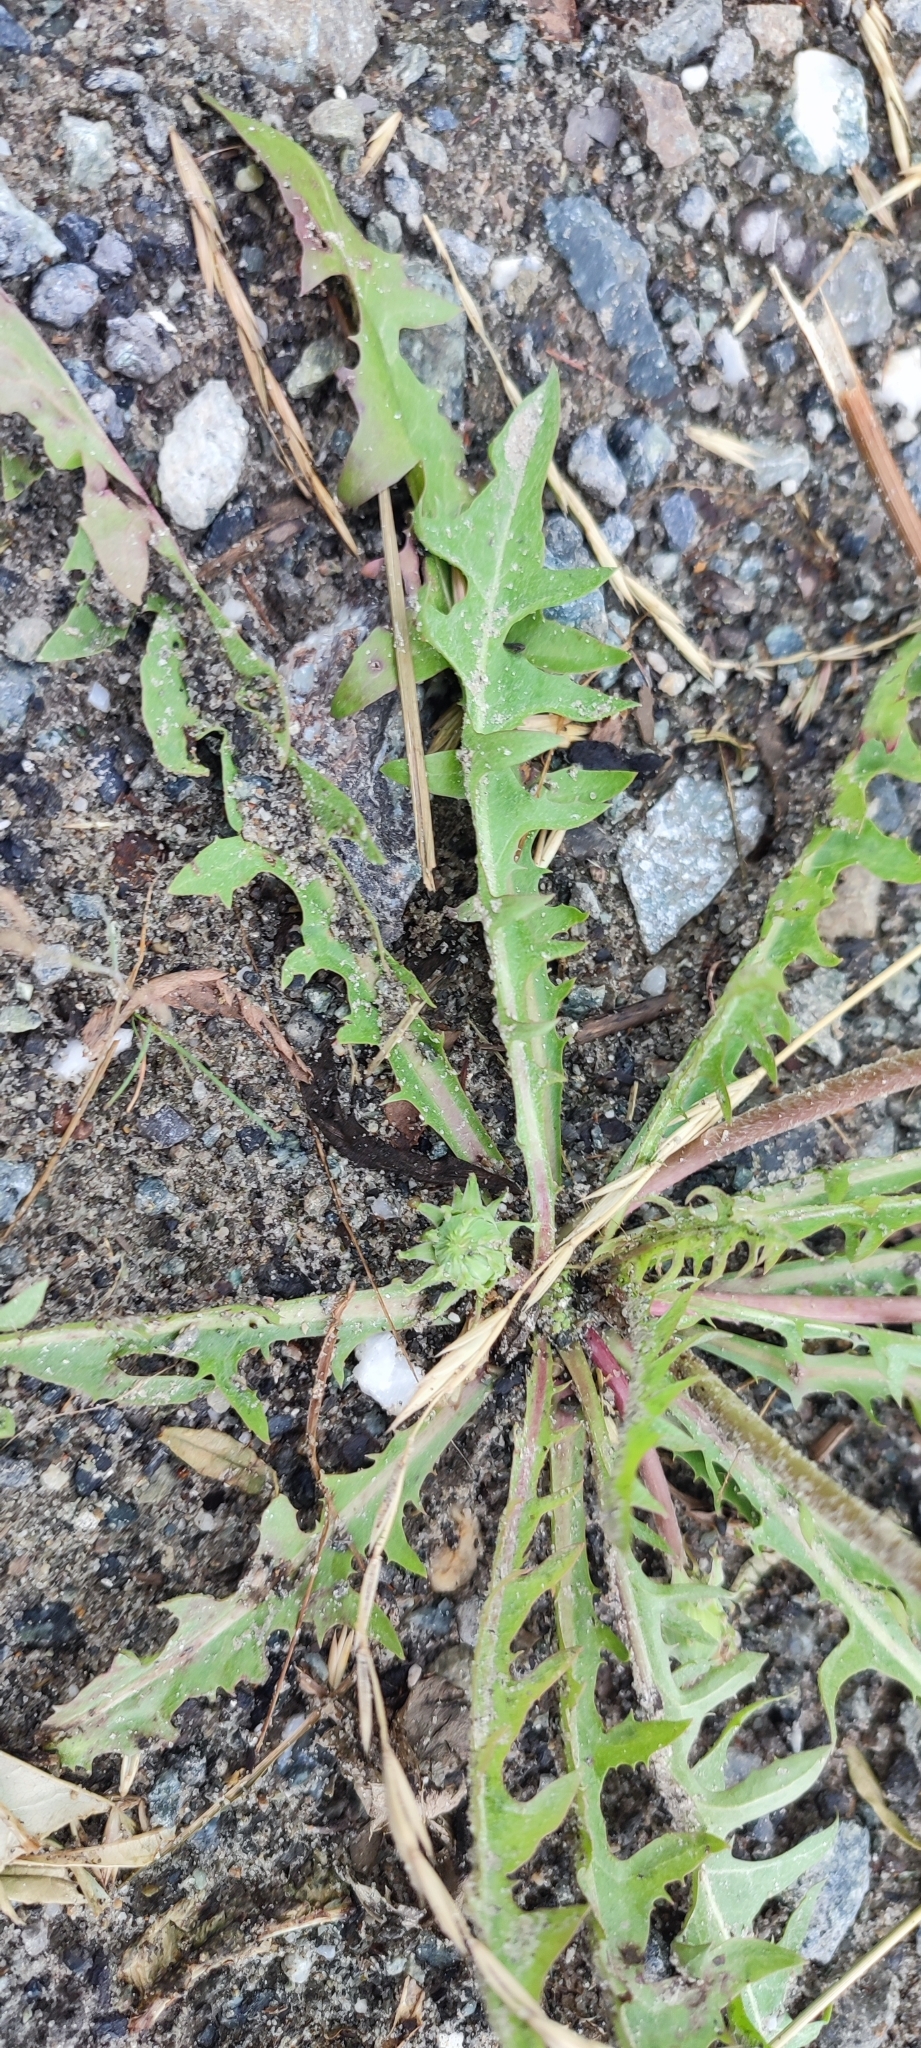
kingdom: Plantae
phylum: Tracheophyta
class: Magnoliopsida
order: Asterales
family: Asteraceae
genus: Taraxacum
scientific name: Taraxacum scariosum
